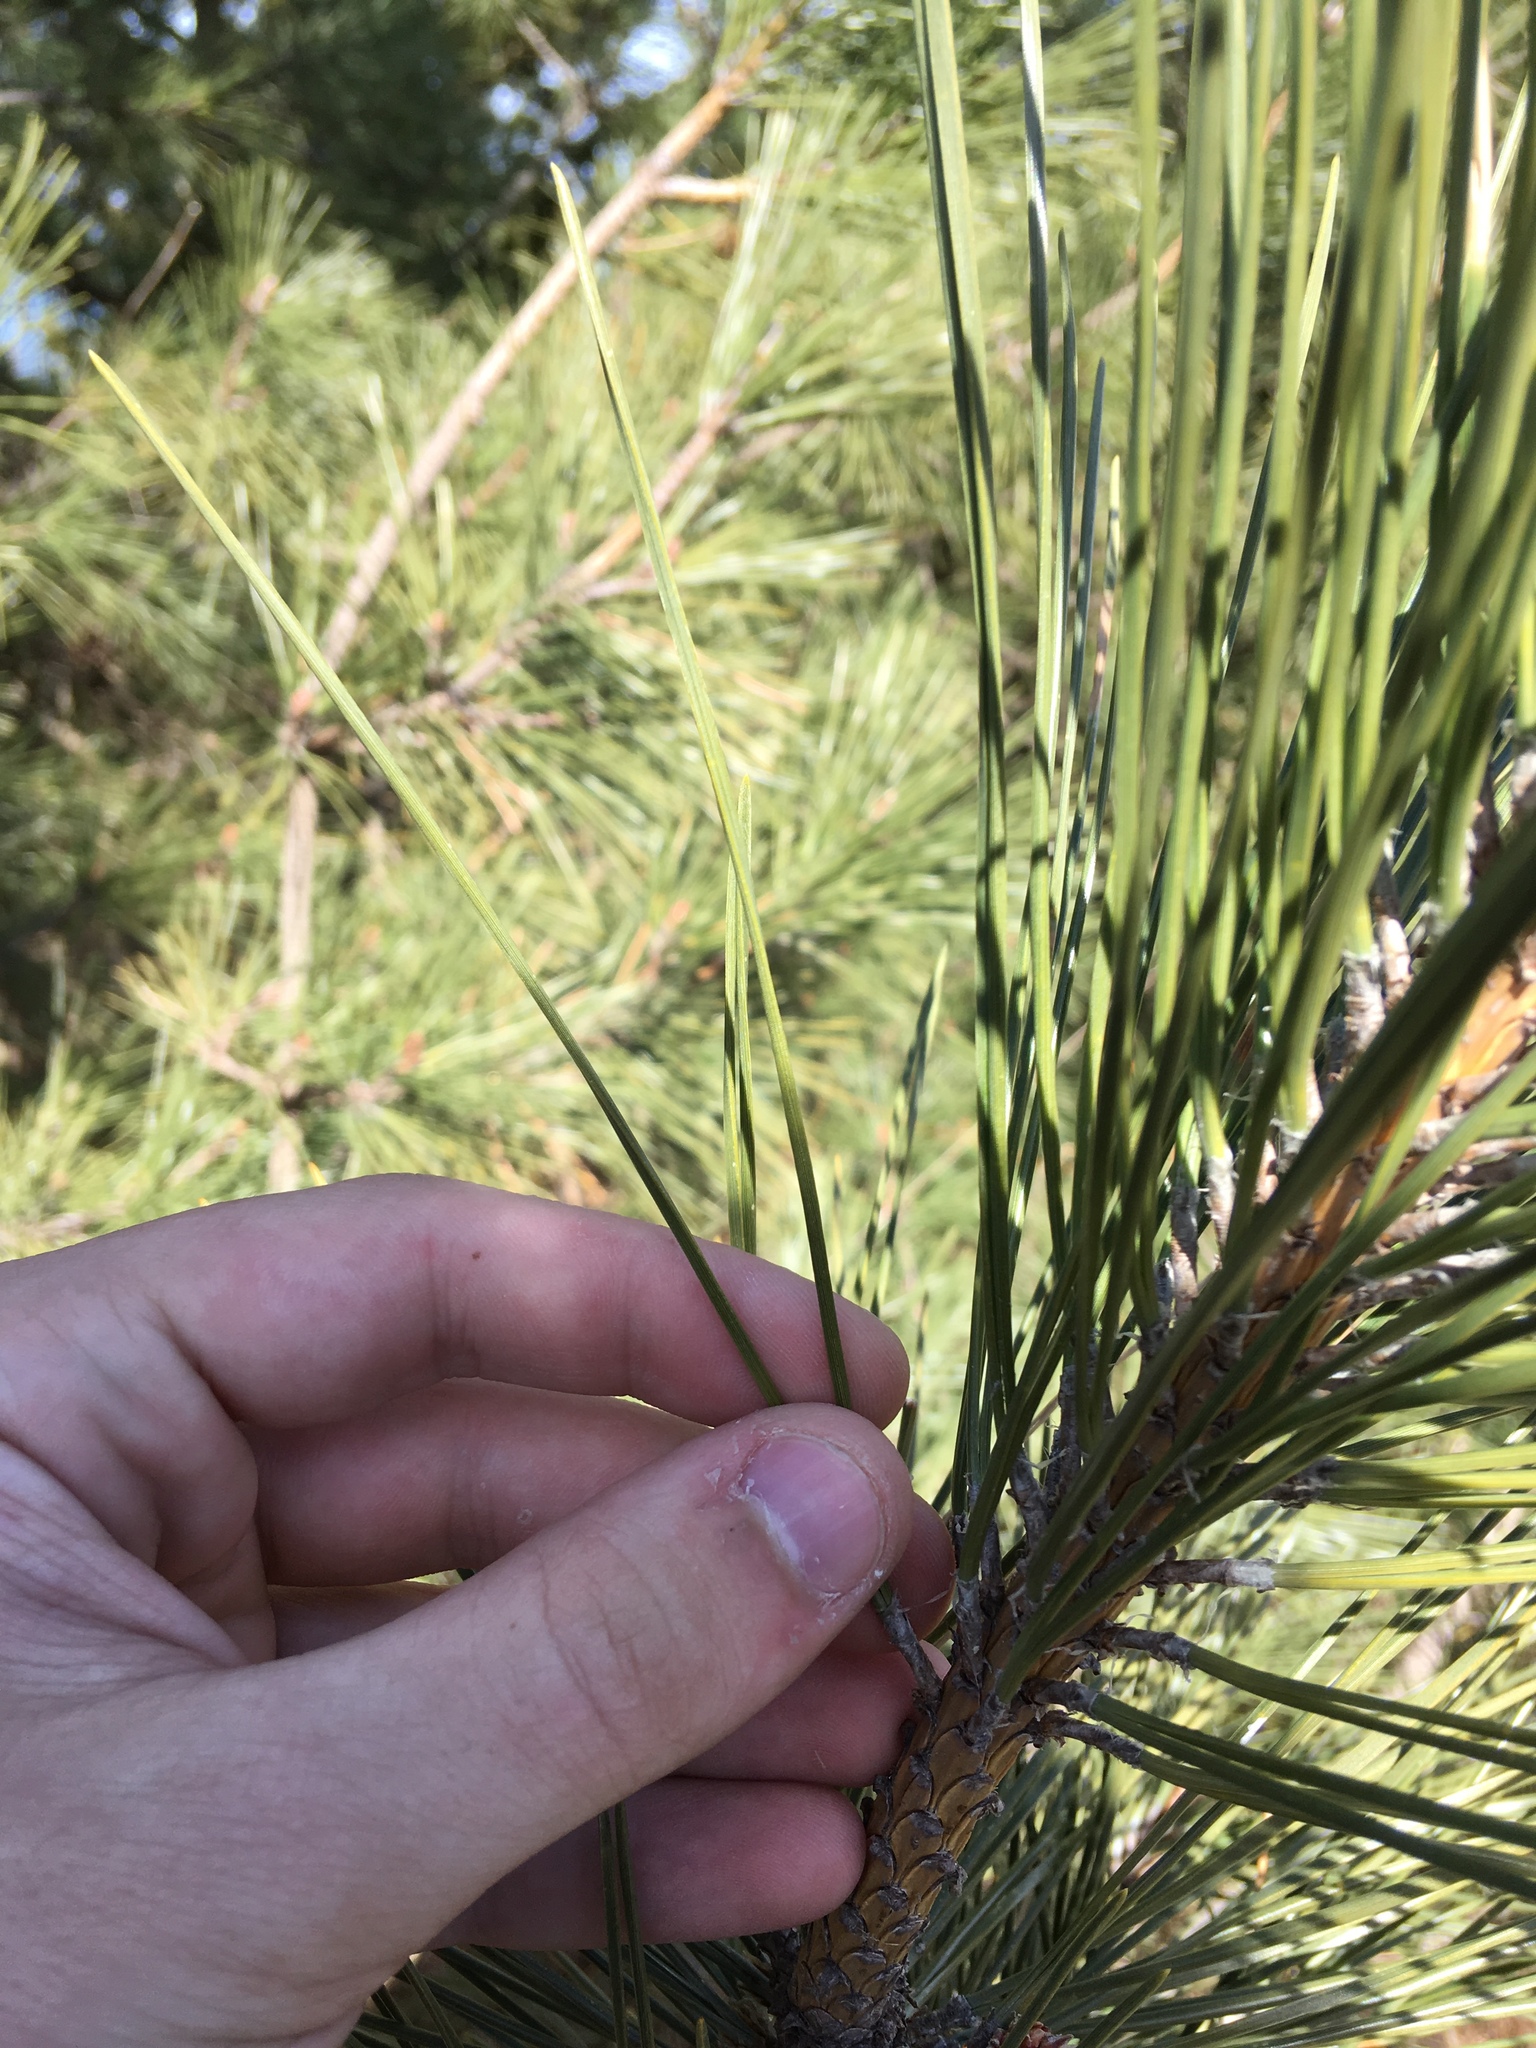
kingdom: Plantae
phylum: Tracheophyta
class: Pinopsida
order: Pinales
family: Pinaceae
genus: Pinus
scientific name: Pinus resinosa
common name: Norway pine
